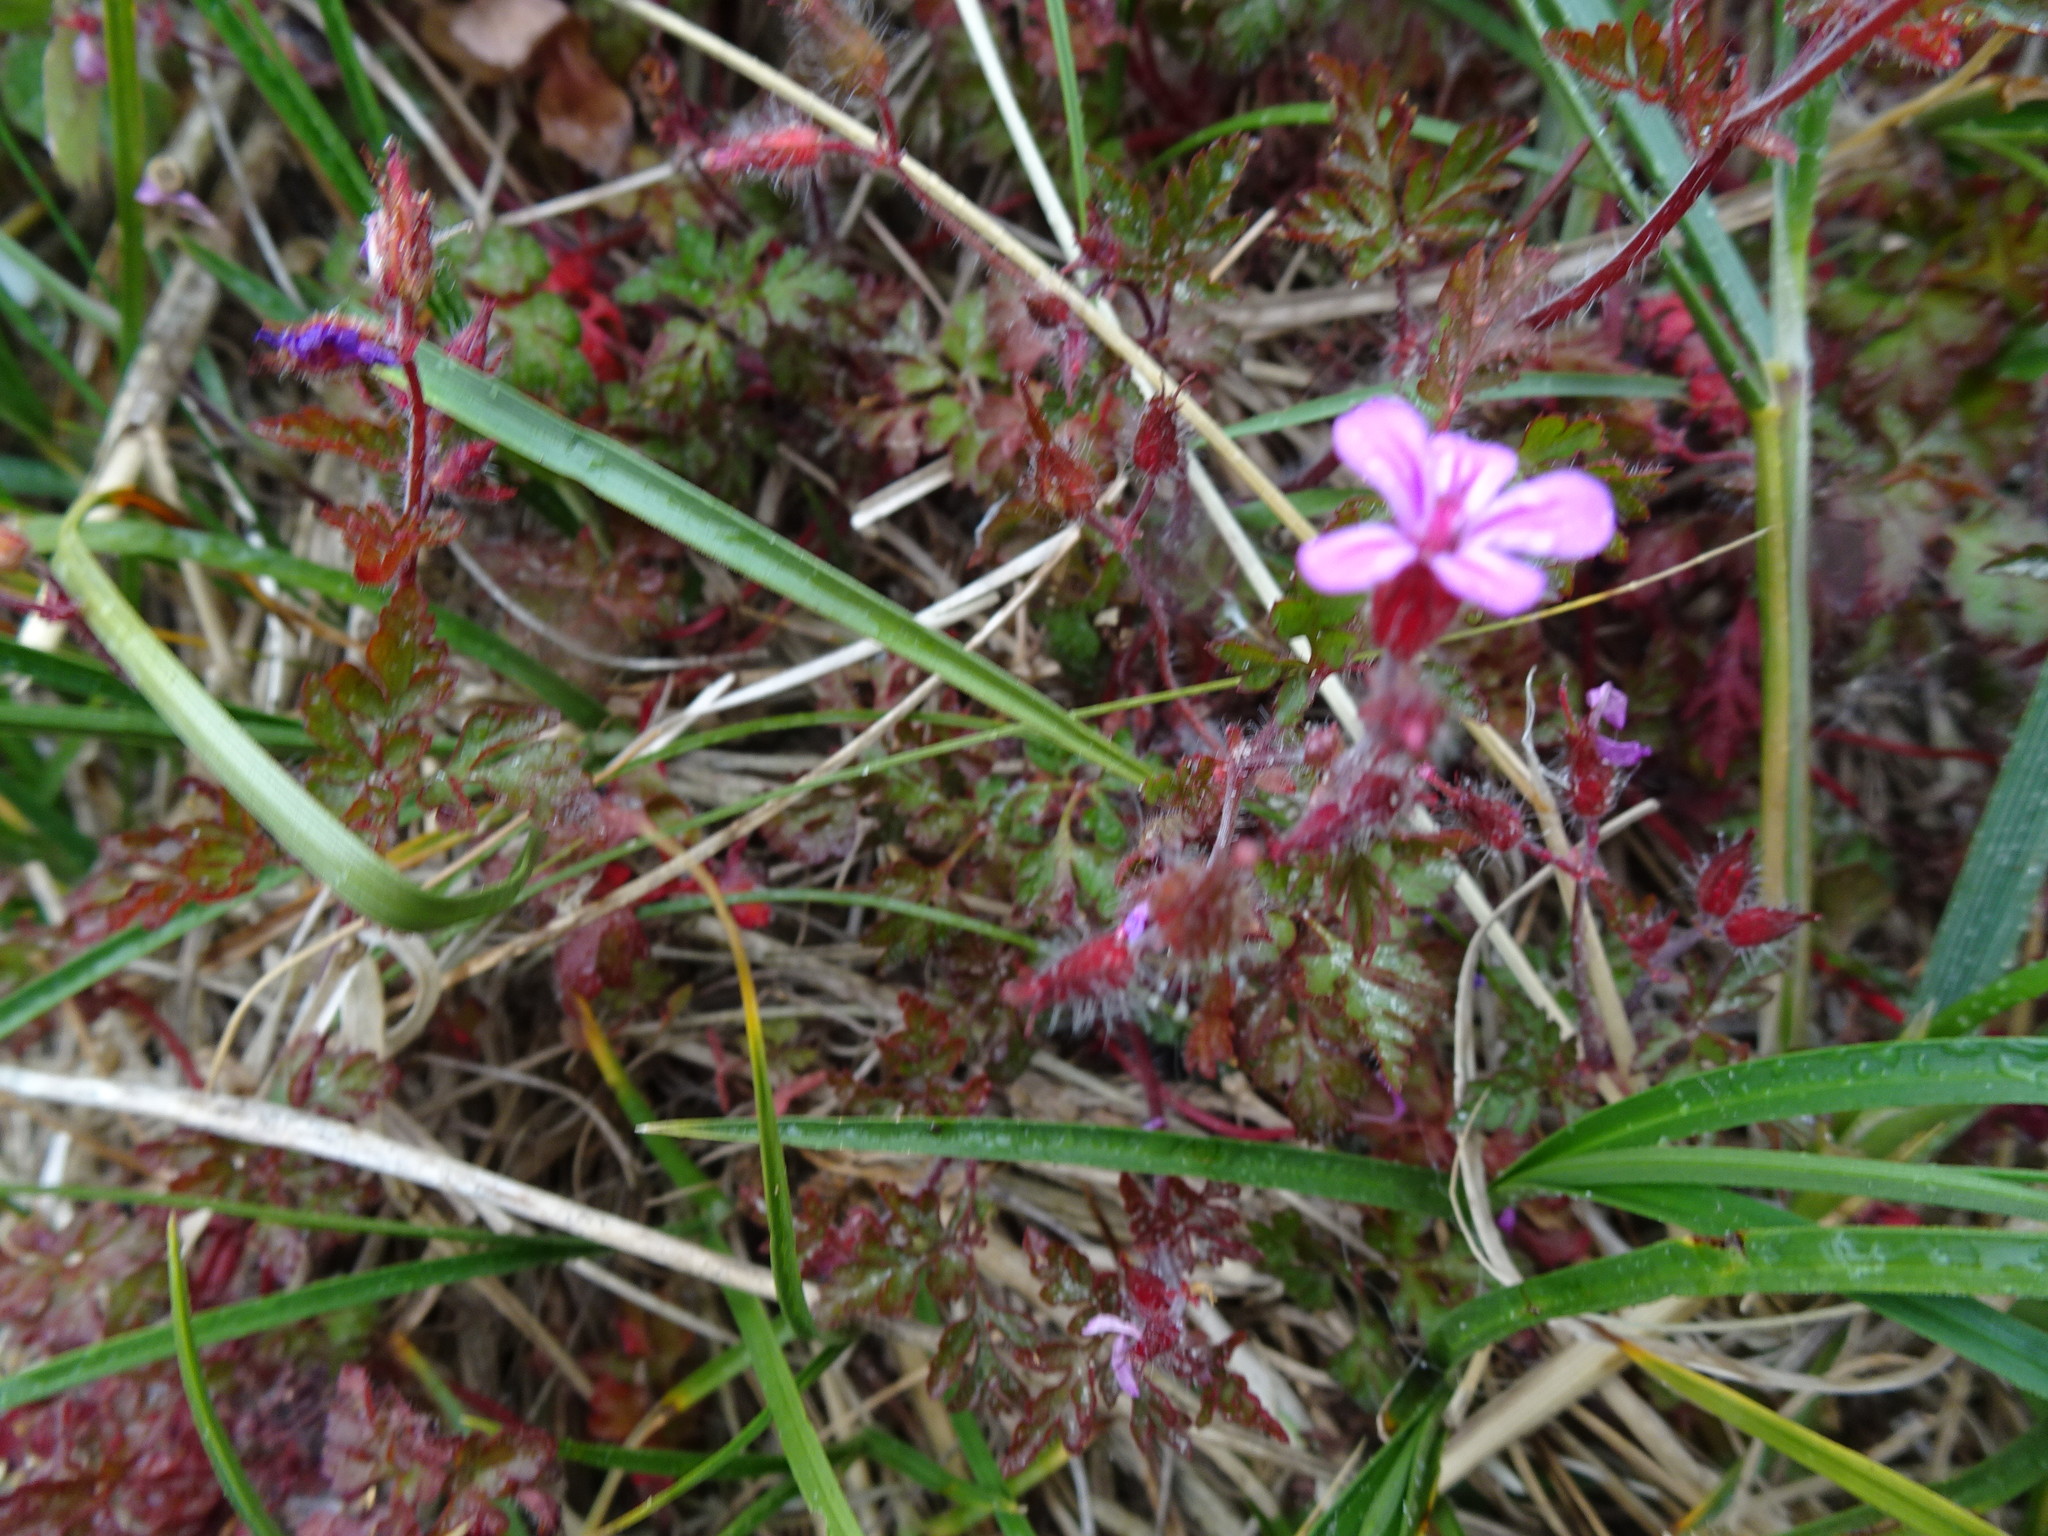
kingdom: Plantae
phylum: Tracheophyta
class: Magnoliopsida
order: Geraniales
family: Geraniaceae
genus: Geranium
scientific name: Geranium robertianum
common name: Herb-robert
